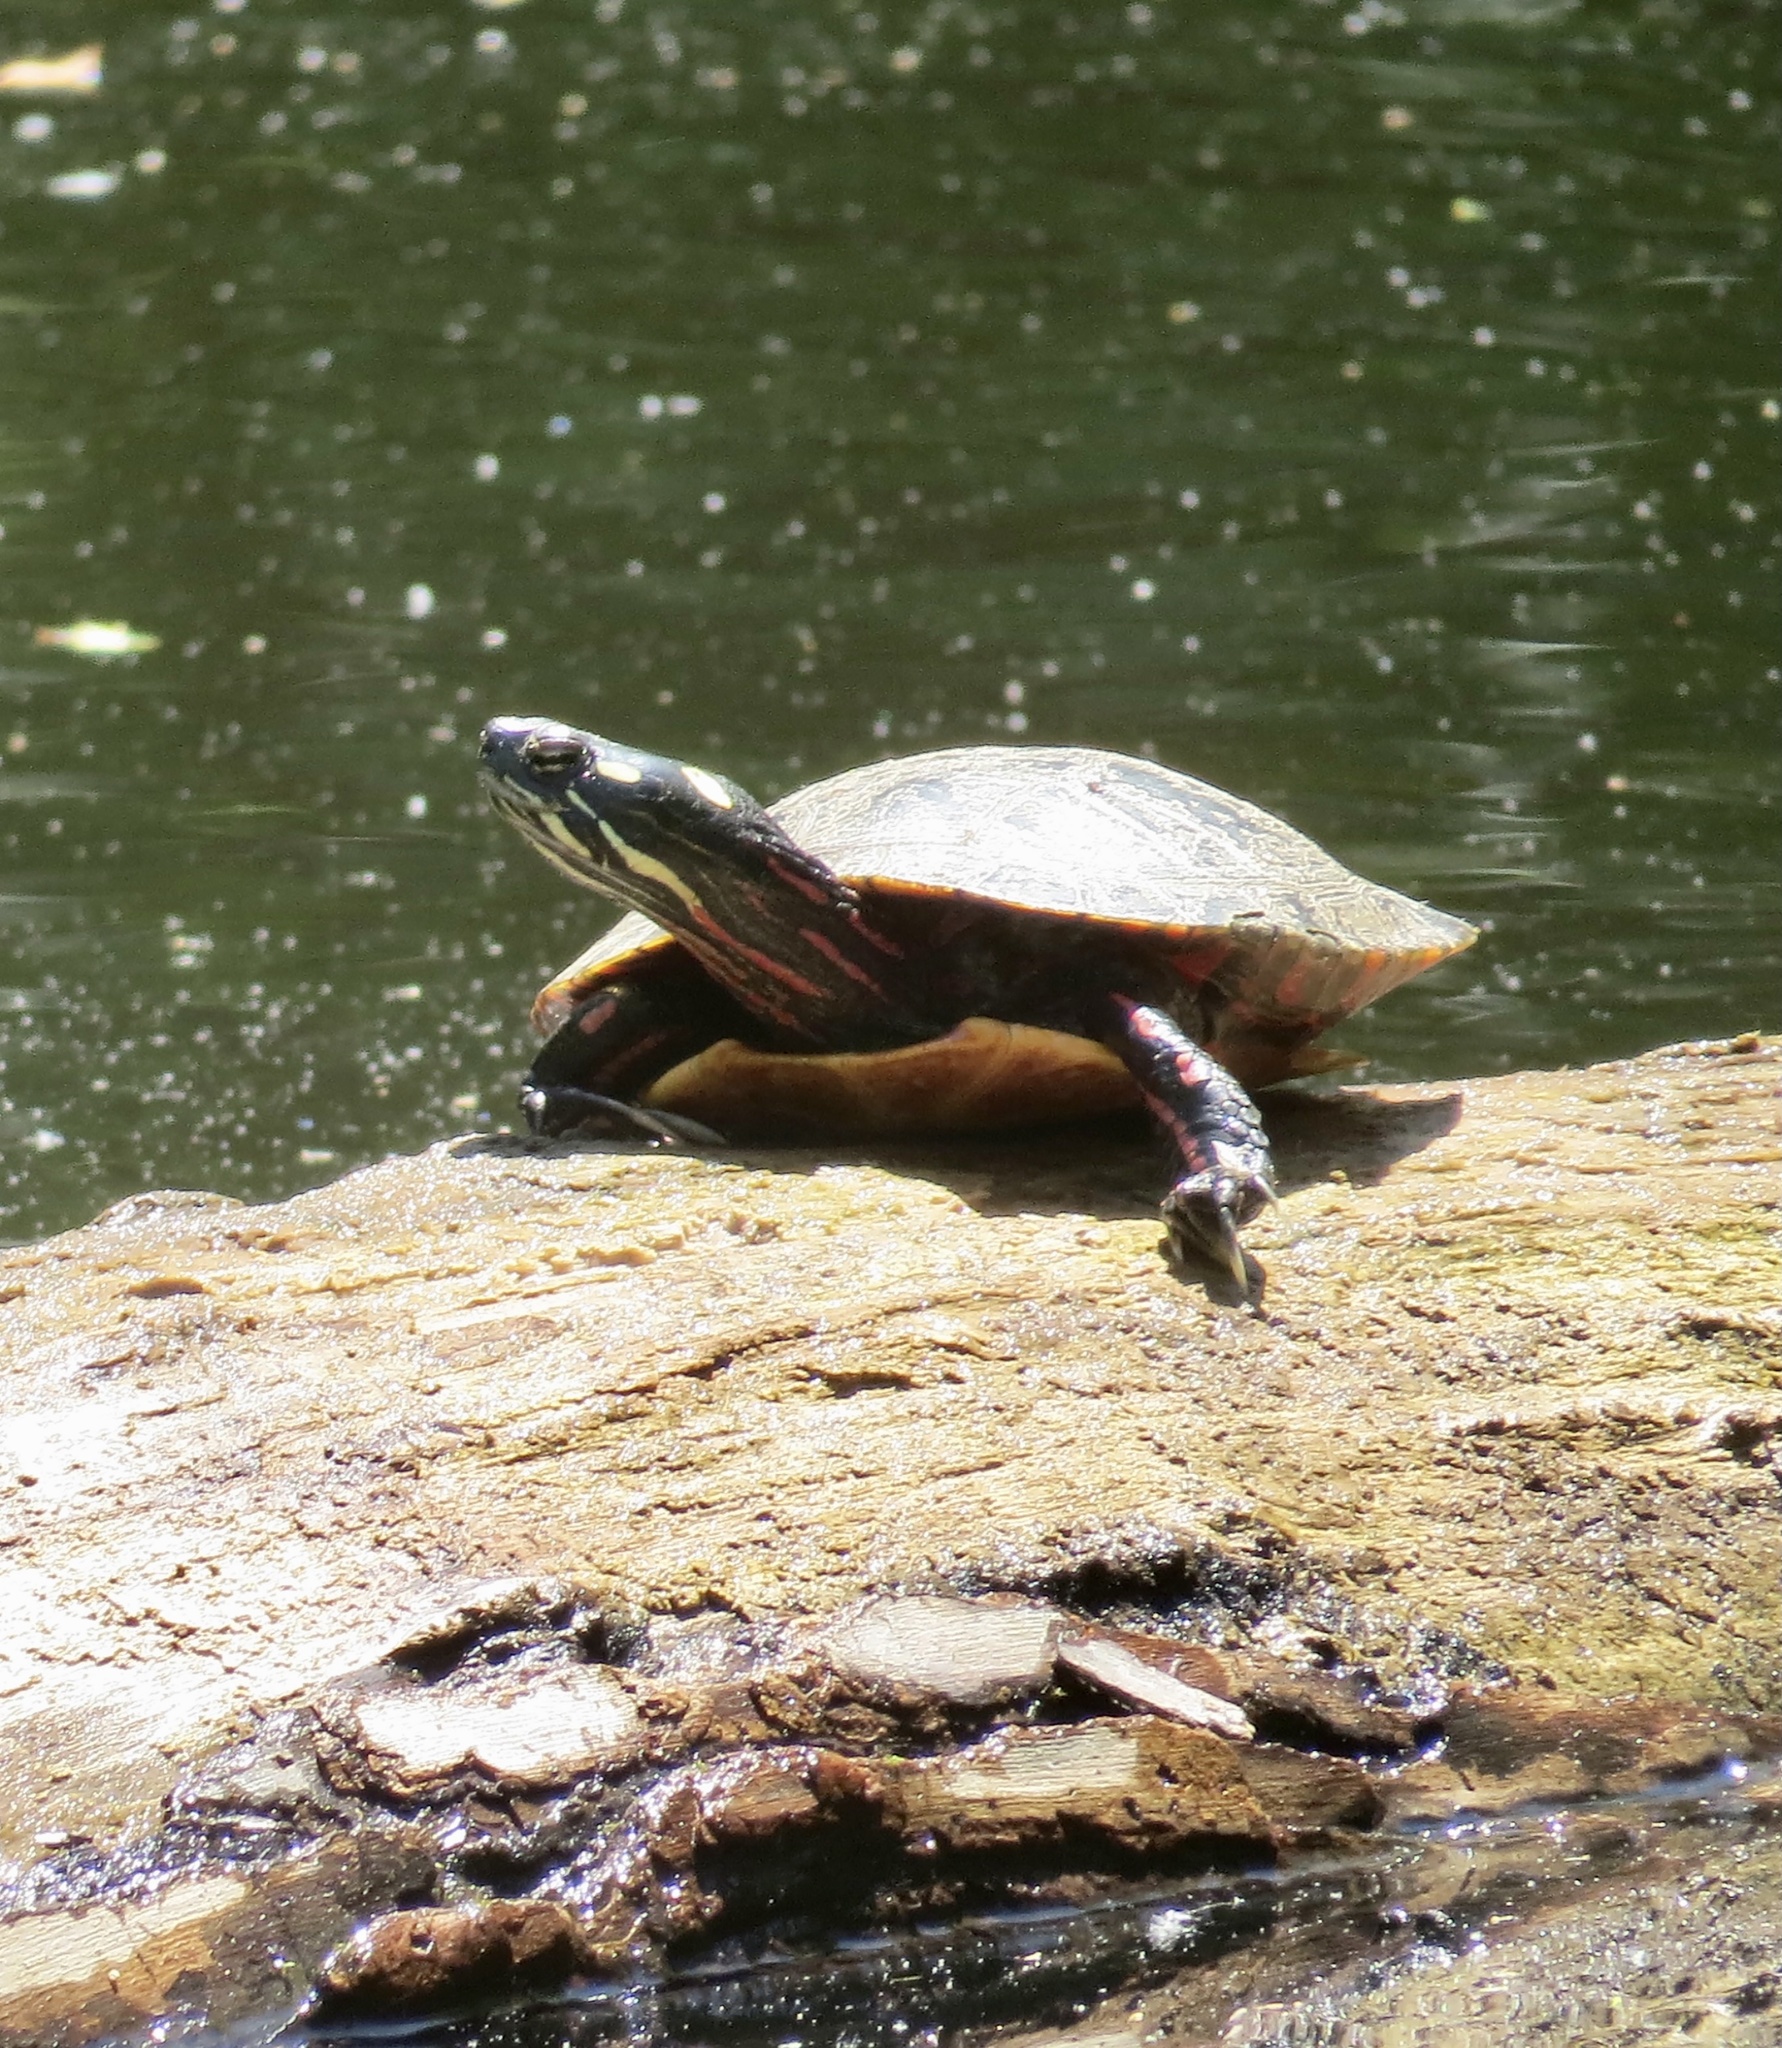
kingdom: Animalia
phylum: Chordata
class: Testudines
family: Emydidae
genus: Chrysemys
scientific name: Chrysemys picta
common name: Painted turtle
